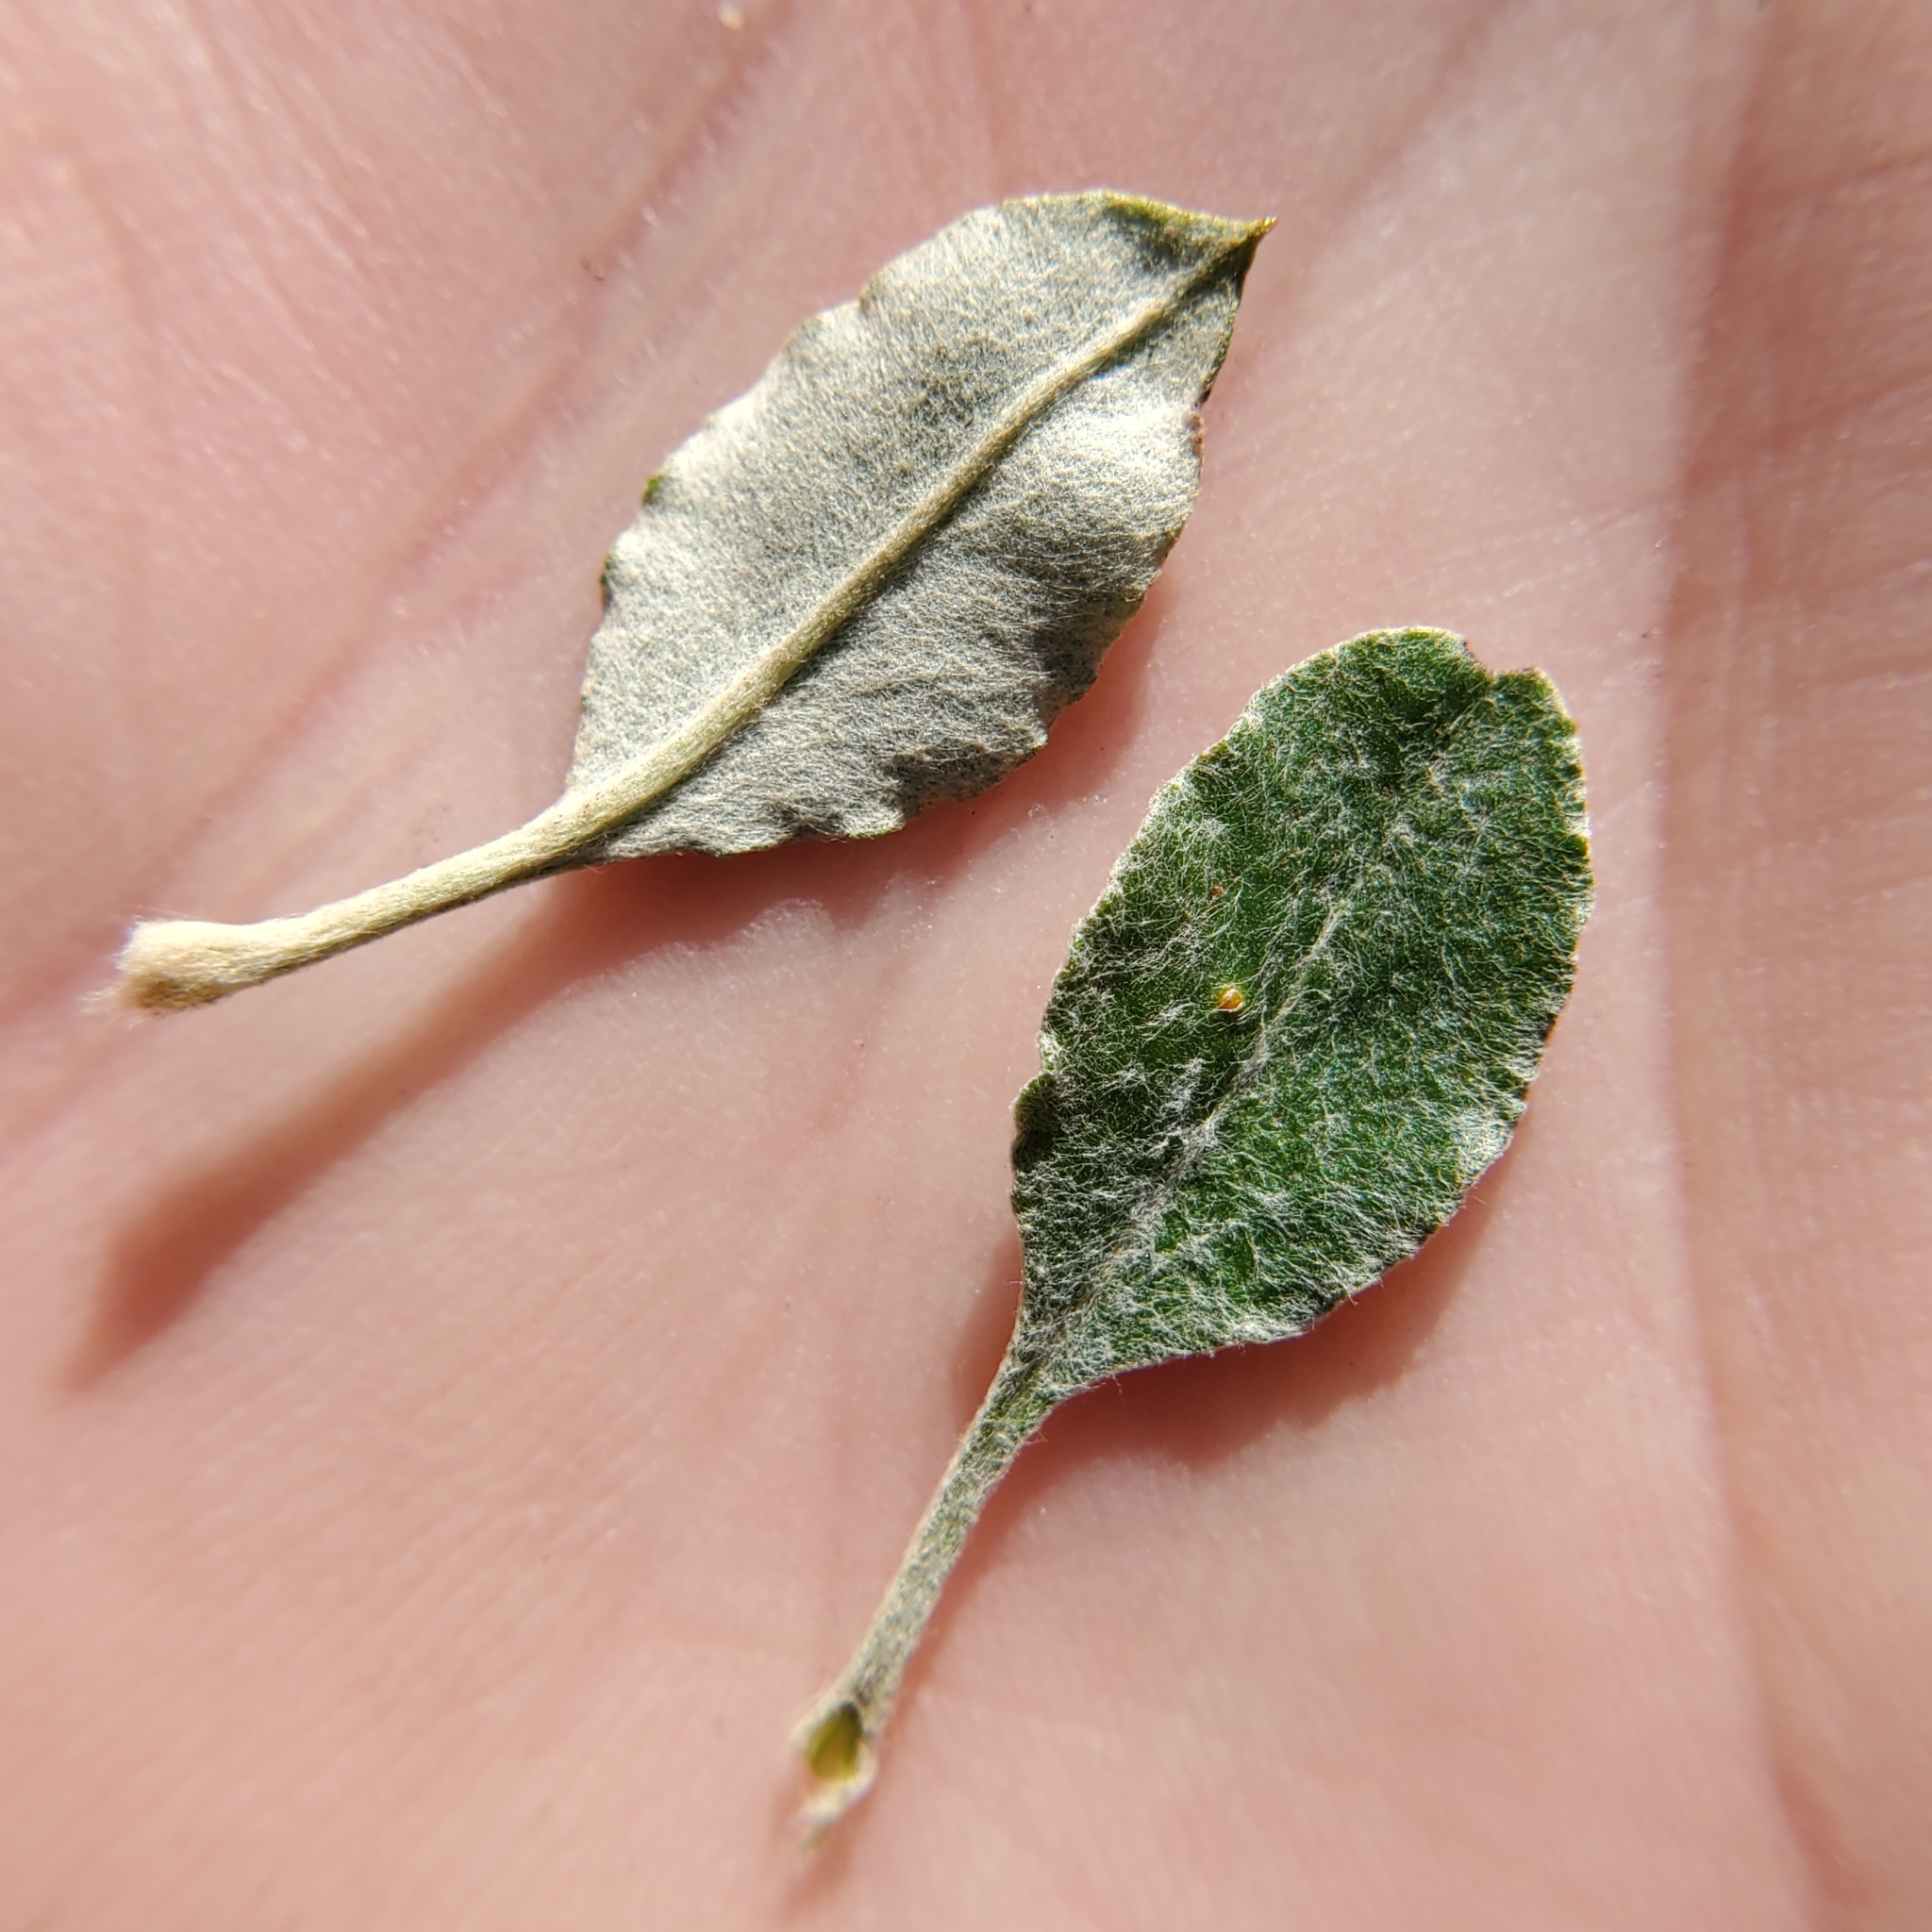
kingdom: Plantae
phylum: Tracheophyta
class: Magnoliopsida
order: Caryophyllales
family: Polygonaceae
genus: Eriogonum
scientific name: Eriogonum elongatum
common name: Long-stem wild buckwheat
